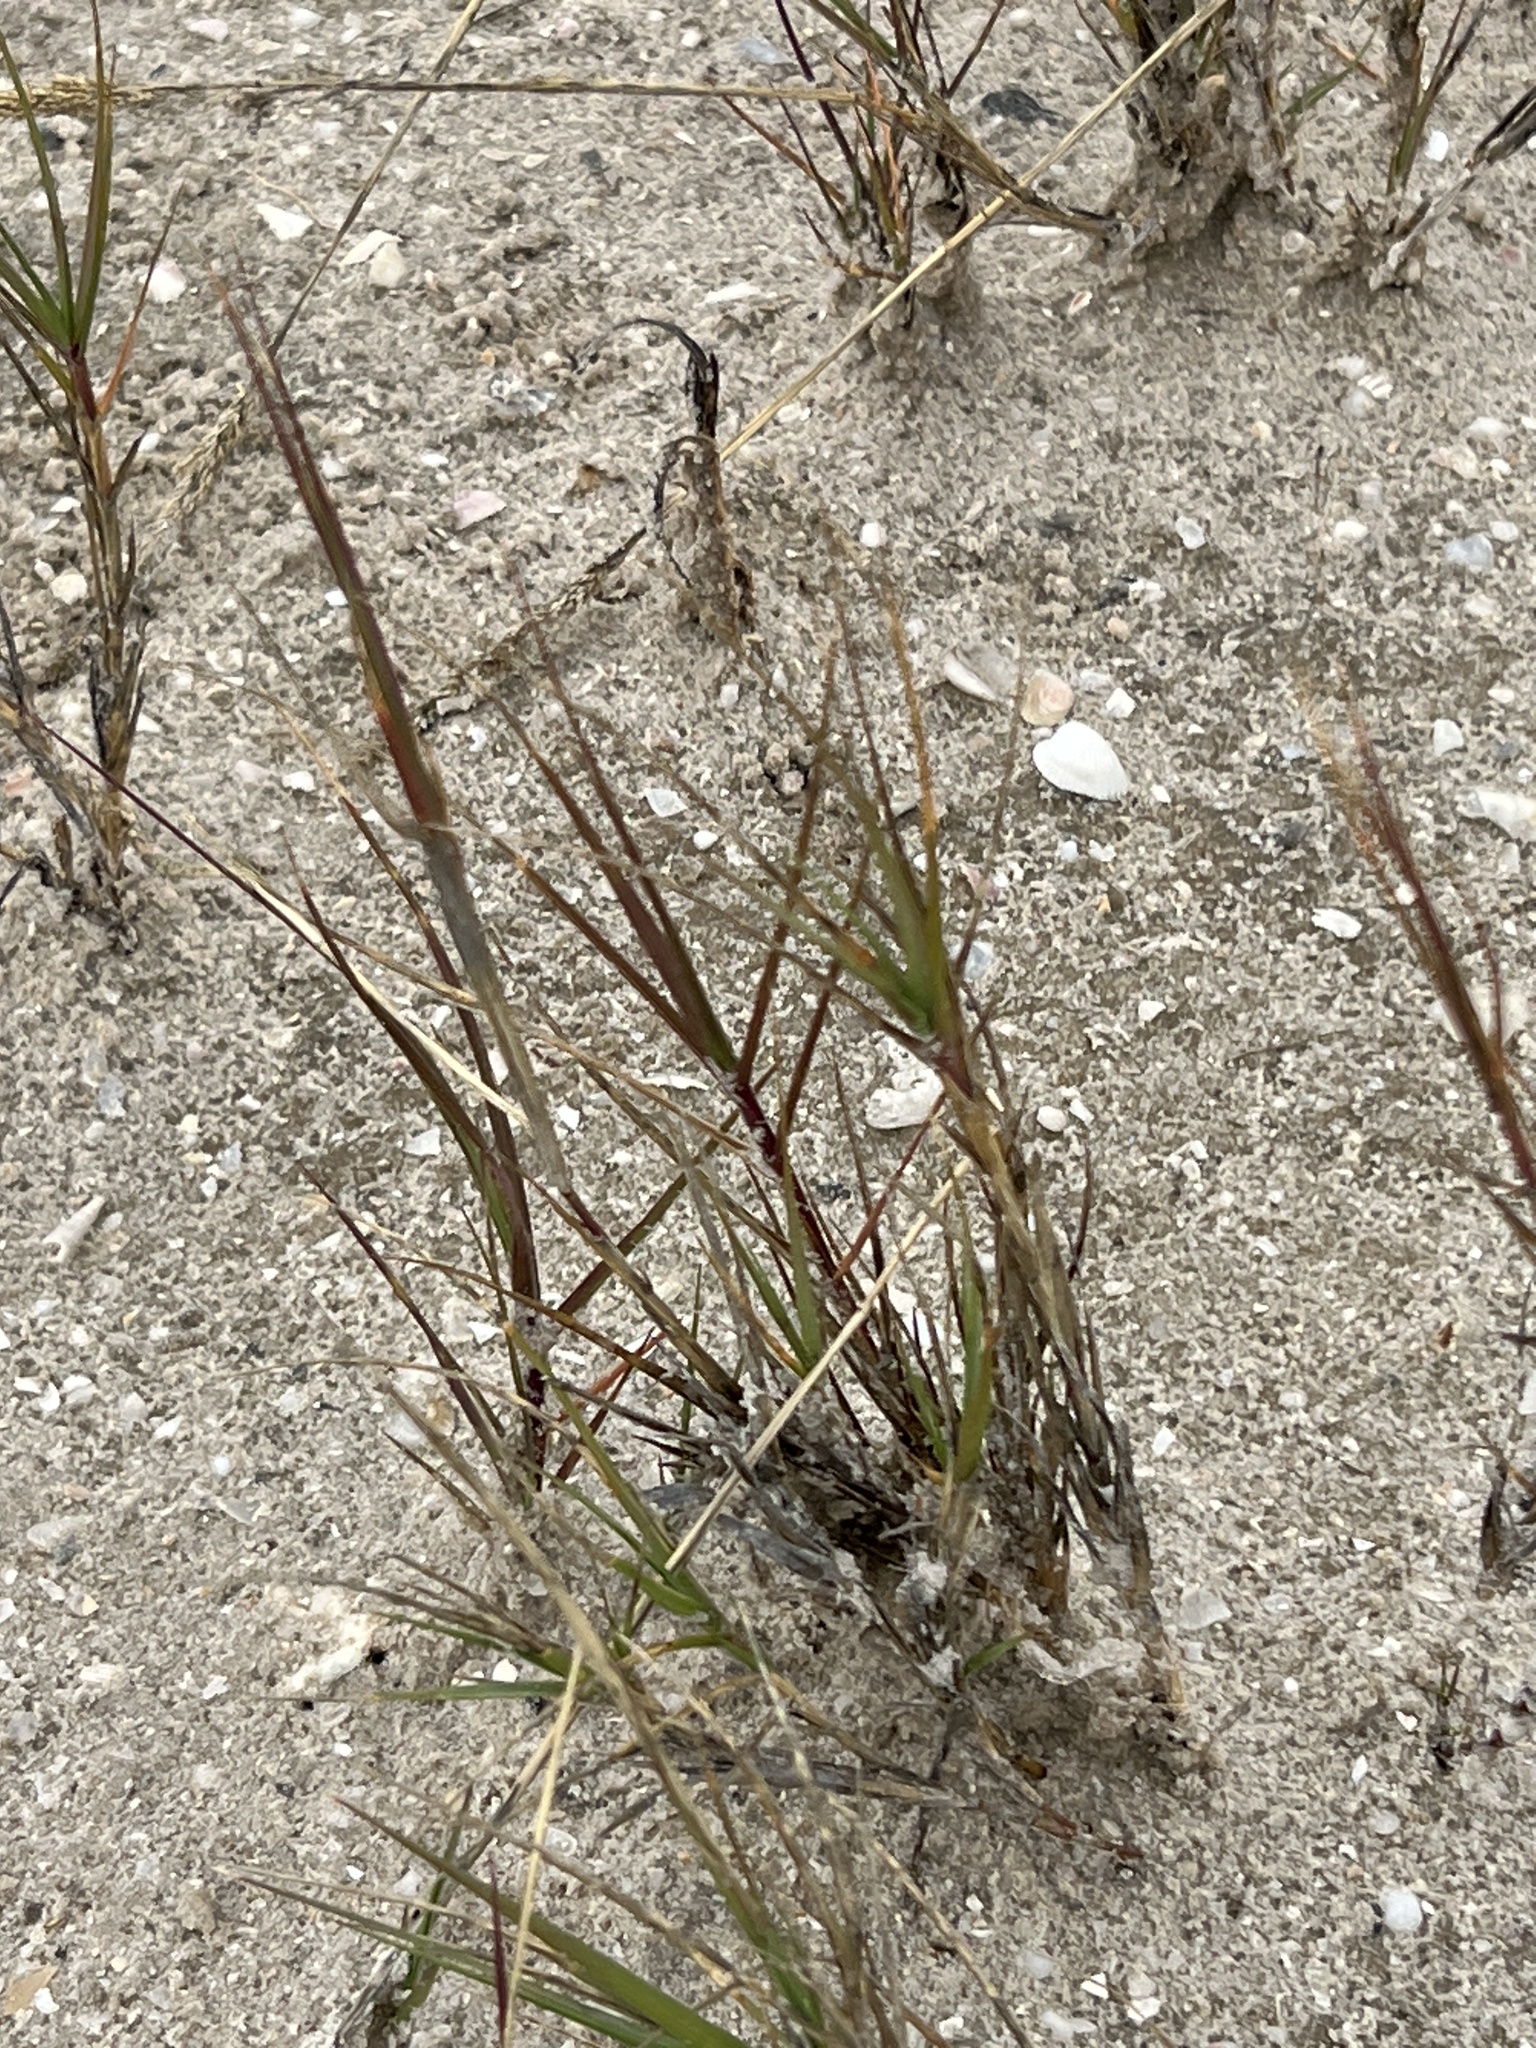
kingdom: Plantae
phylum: Tracheophyta
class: Liliopsida
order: Poales
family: Poaceae
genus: Distichlis
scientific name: Distichlis spicata
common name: Saltgrass
